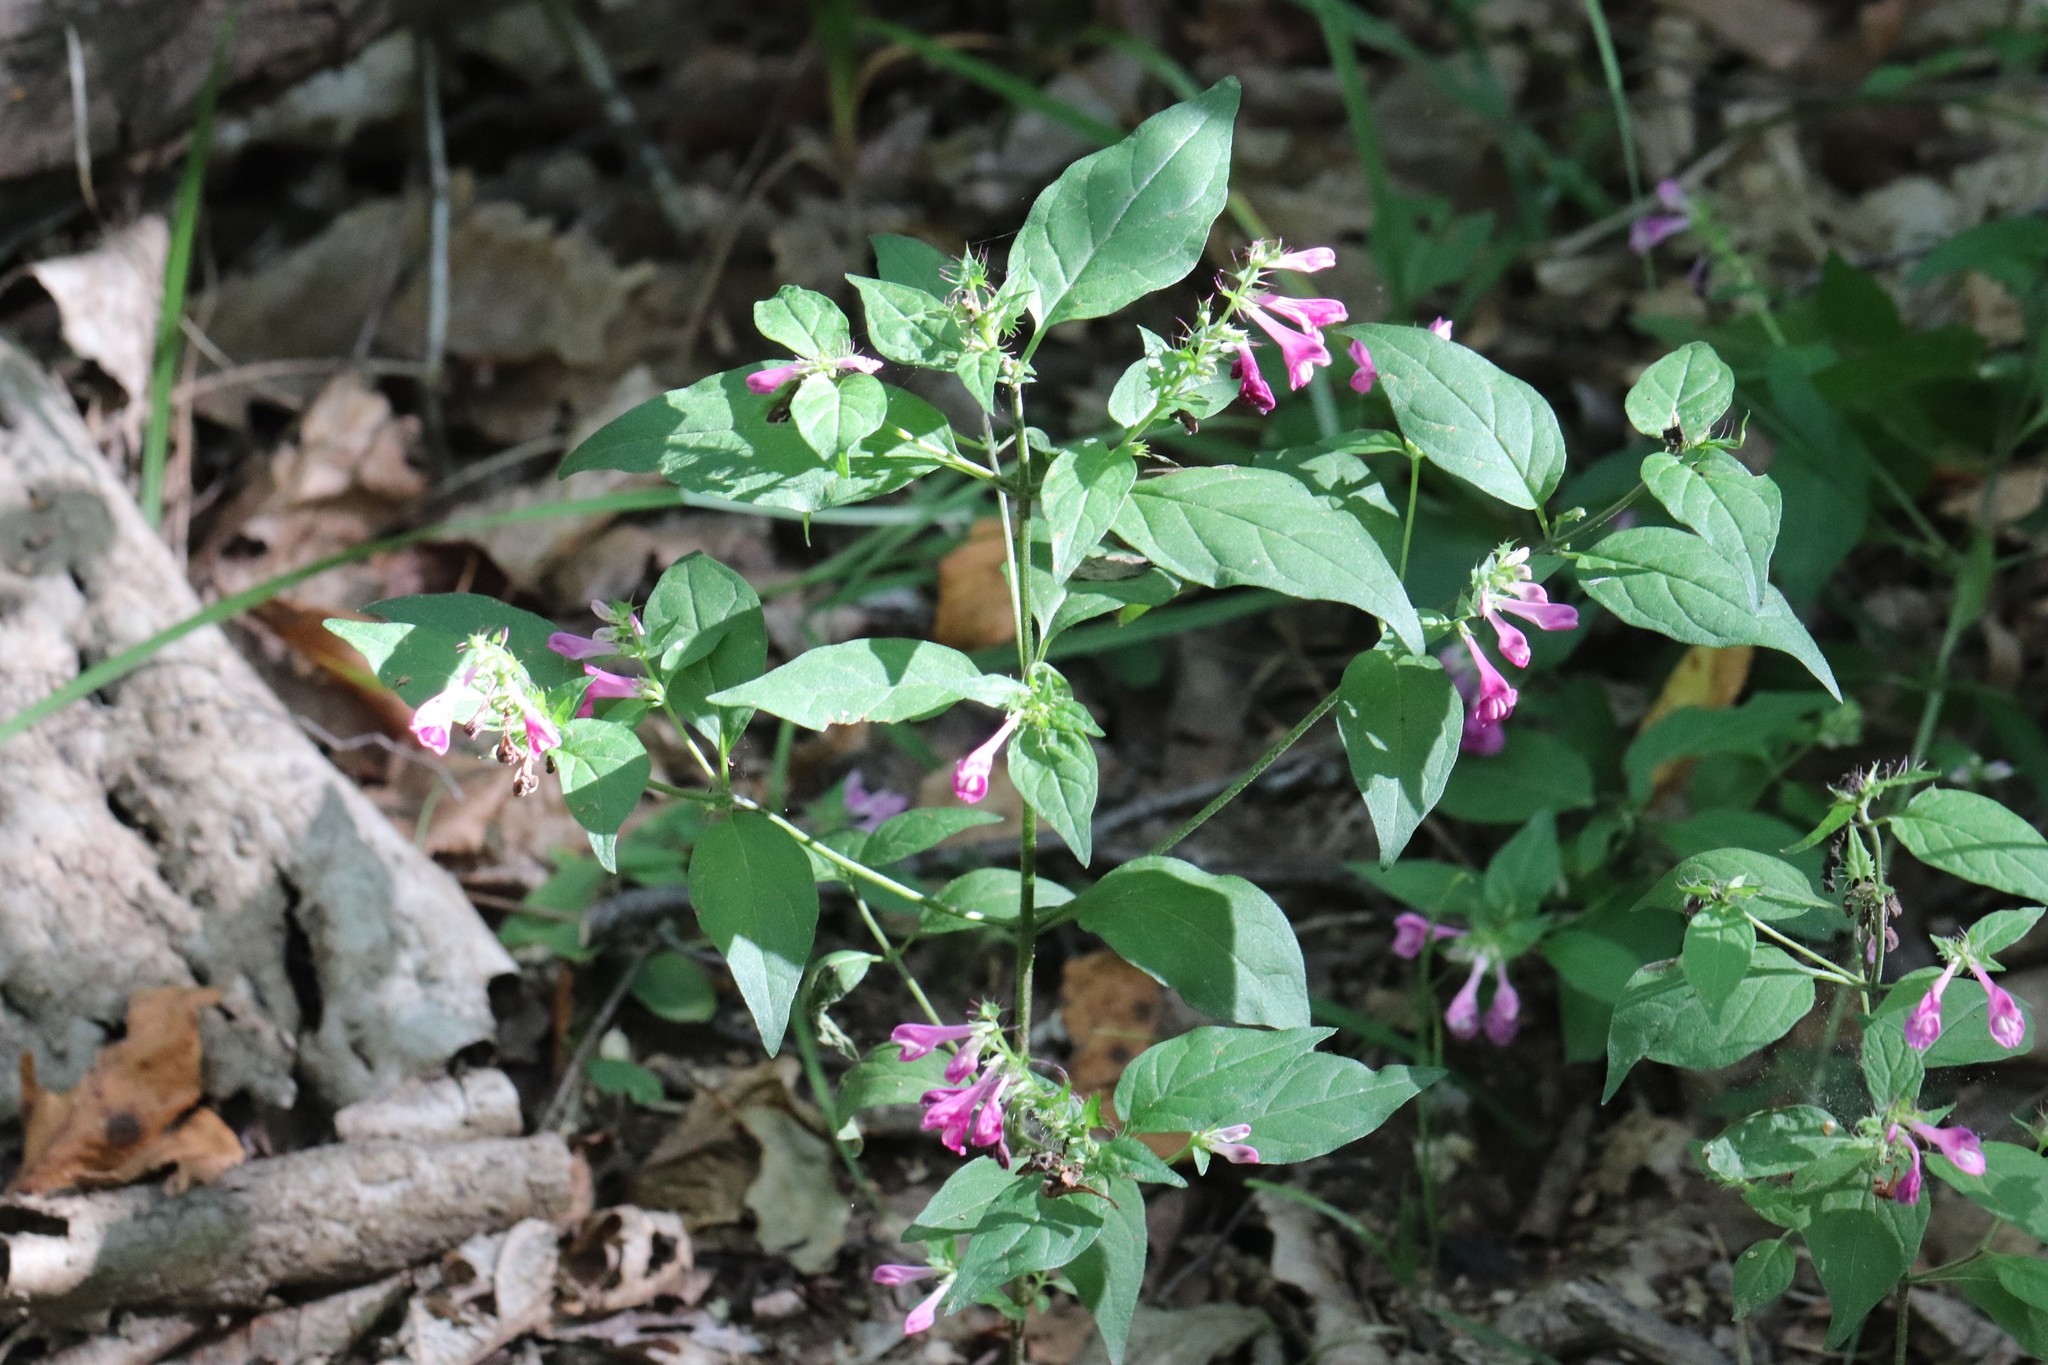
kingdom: Plantae
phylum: Tracheophyta
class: Magnoliopsida
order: Lamiales
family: Orobanchaceae
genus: Melampyrum
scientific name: Melampyrum roseum
